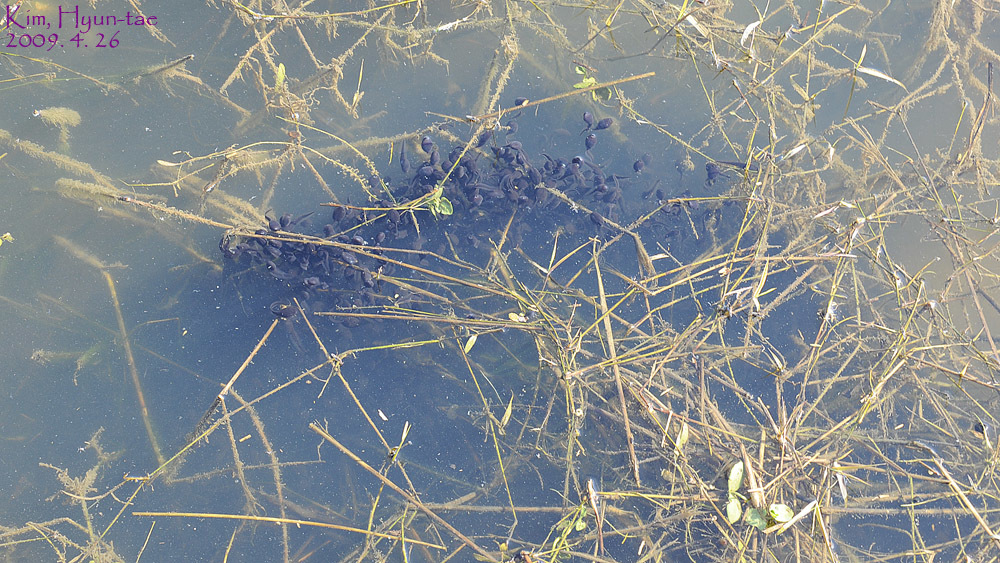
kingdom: Animalia
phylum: Chordata
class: Amphibia
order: Anura
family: Bufonidae
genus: Bufo
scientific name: Bufo gargarizans
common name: Asiatic toad
